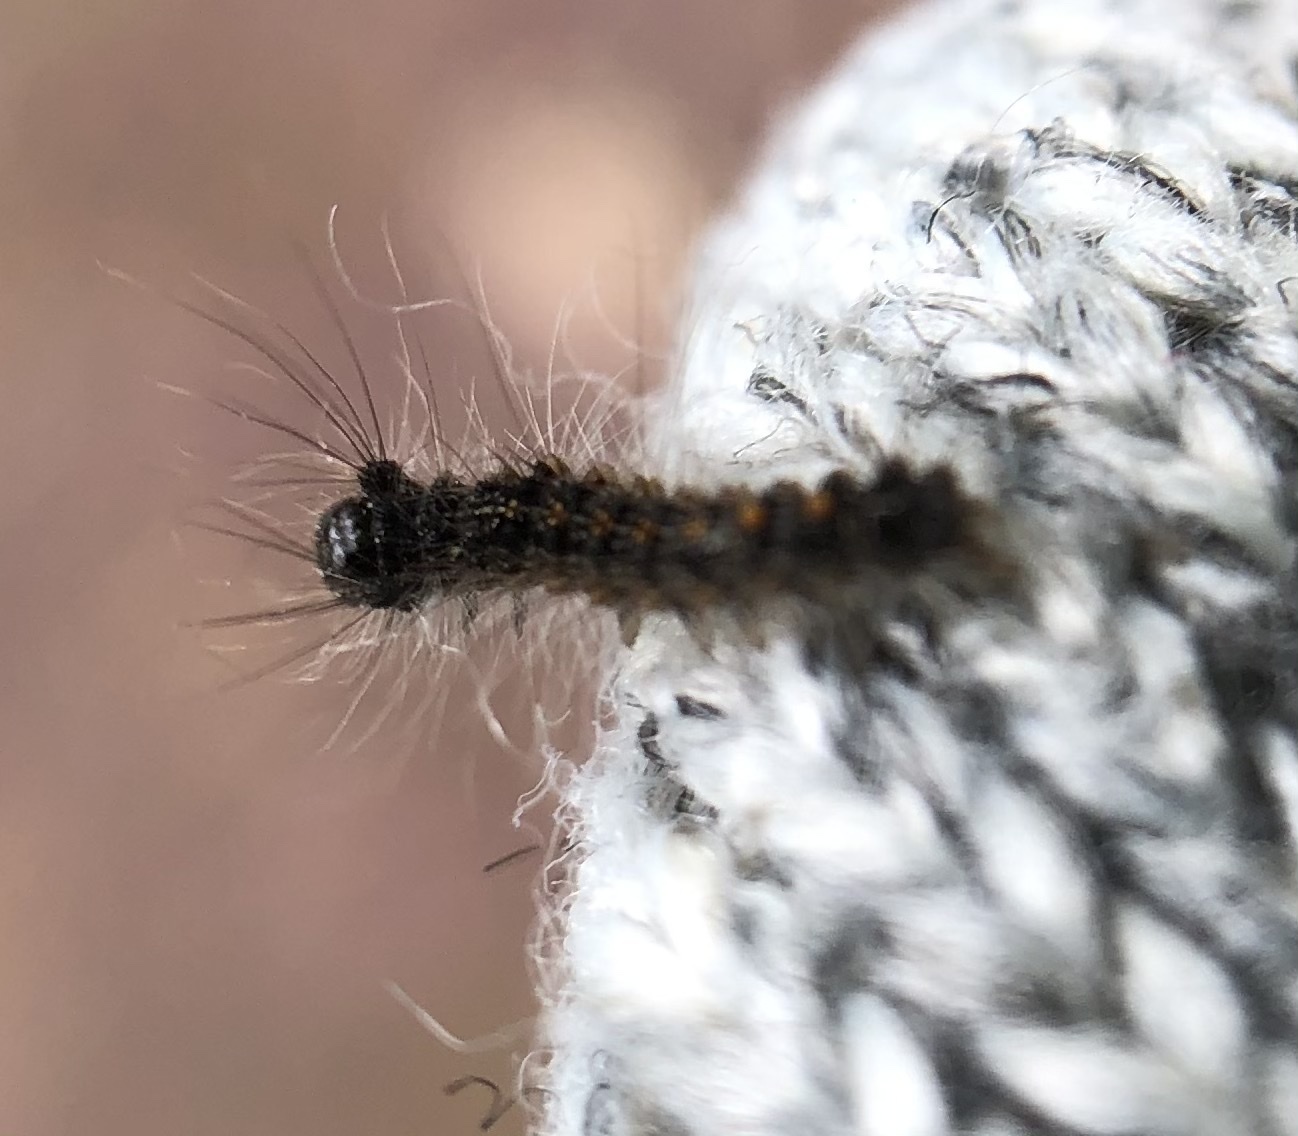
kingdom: Animalia
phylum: Arthropoda
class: Insecta
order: Lepidoptera
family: Erebidae
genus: Lymantria
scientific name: Lymantria dispar
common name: Gypsy moth
